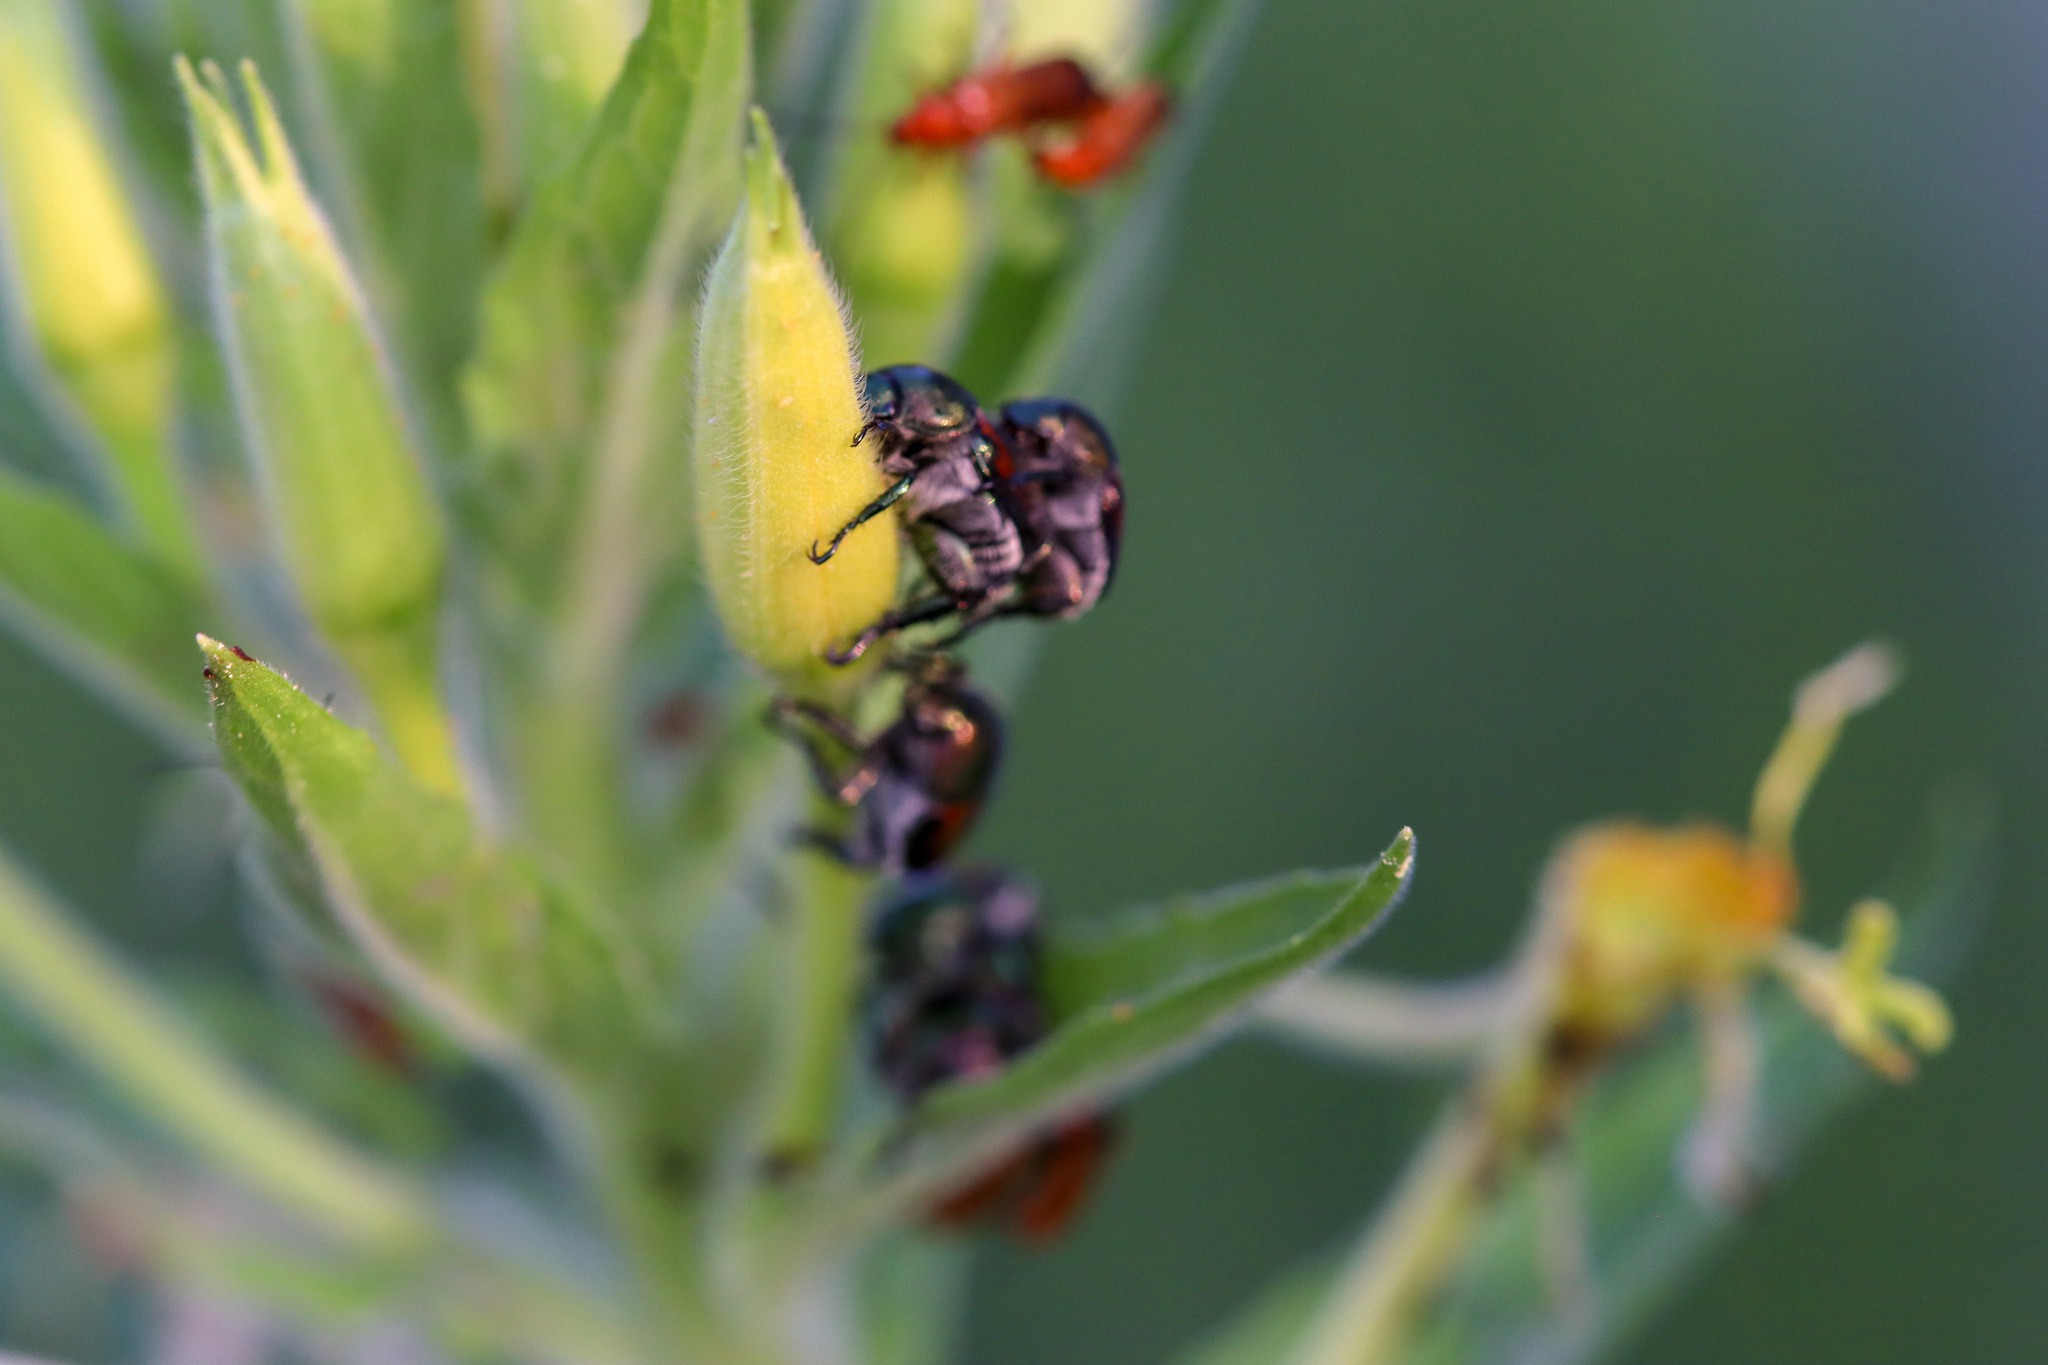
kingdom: Animalia
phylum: Arthropoda
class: Insecta
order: Coleoptera
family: Scarabaeidae
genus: Popillia
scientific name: Popillia japonica
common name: Japanese beetle
